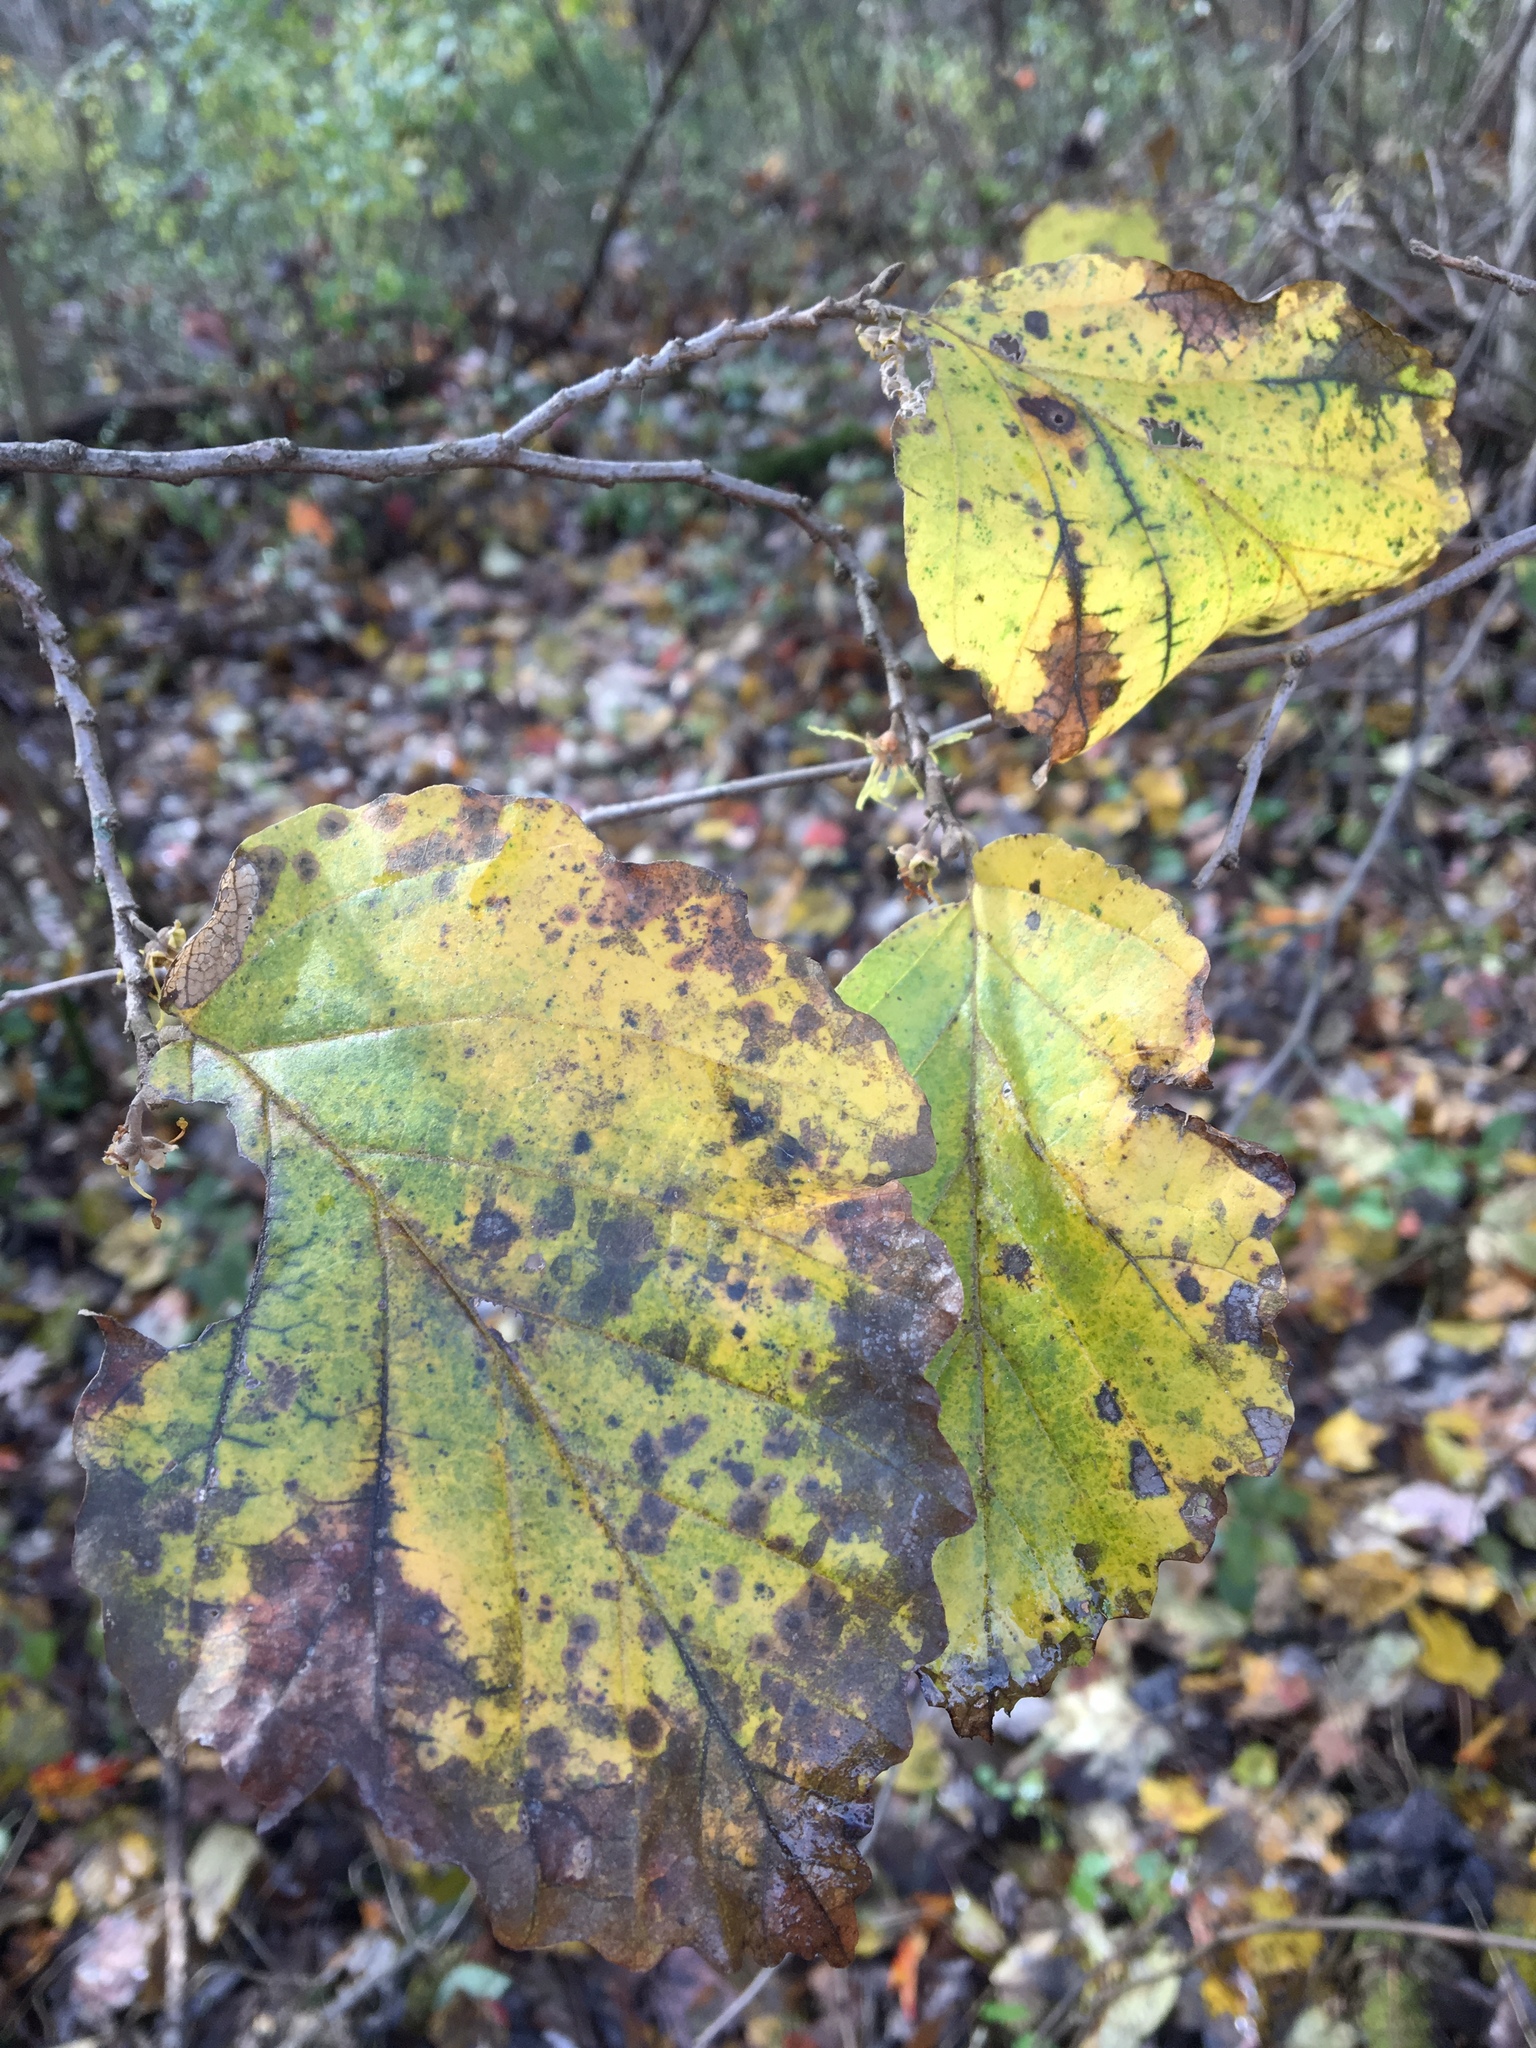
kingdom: Plantae
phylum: Tracheophyta
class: Magnoliopsida
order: Saxifragales
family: Hamamelidaceae
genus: Hamamelis
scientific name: Hamamelis virginiana
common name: Witch-hazel
